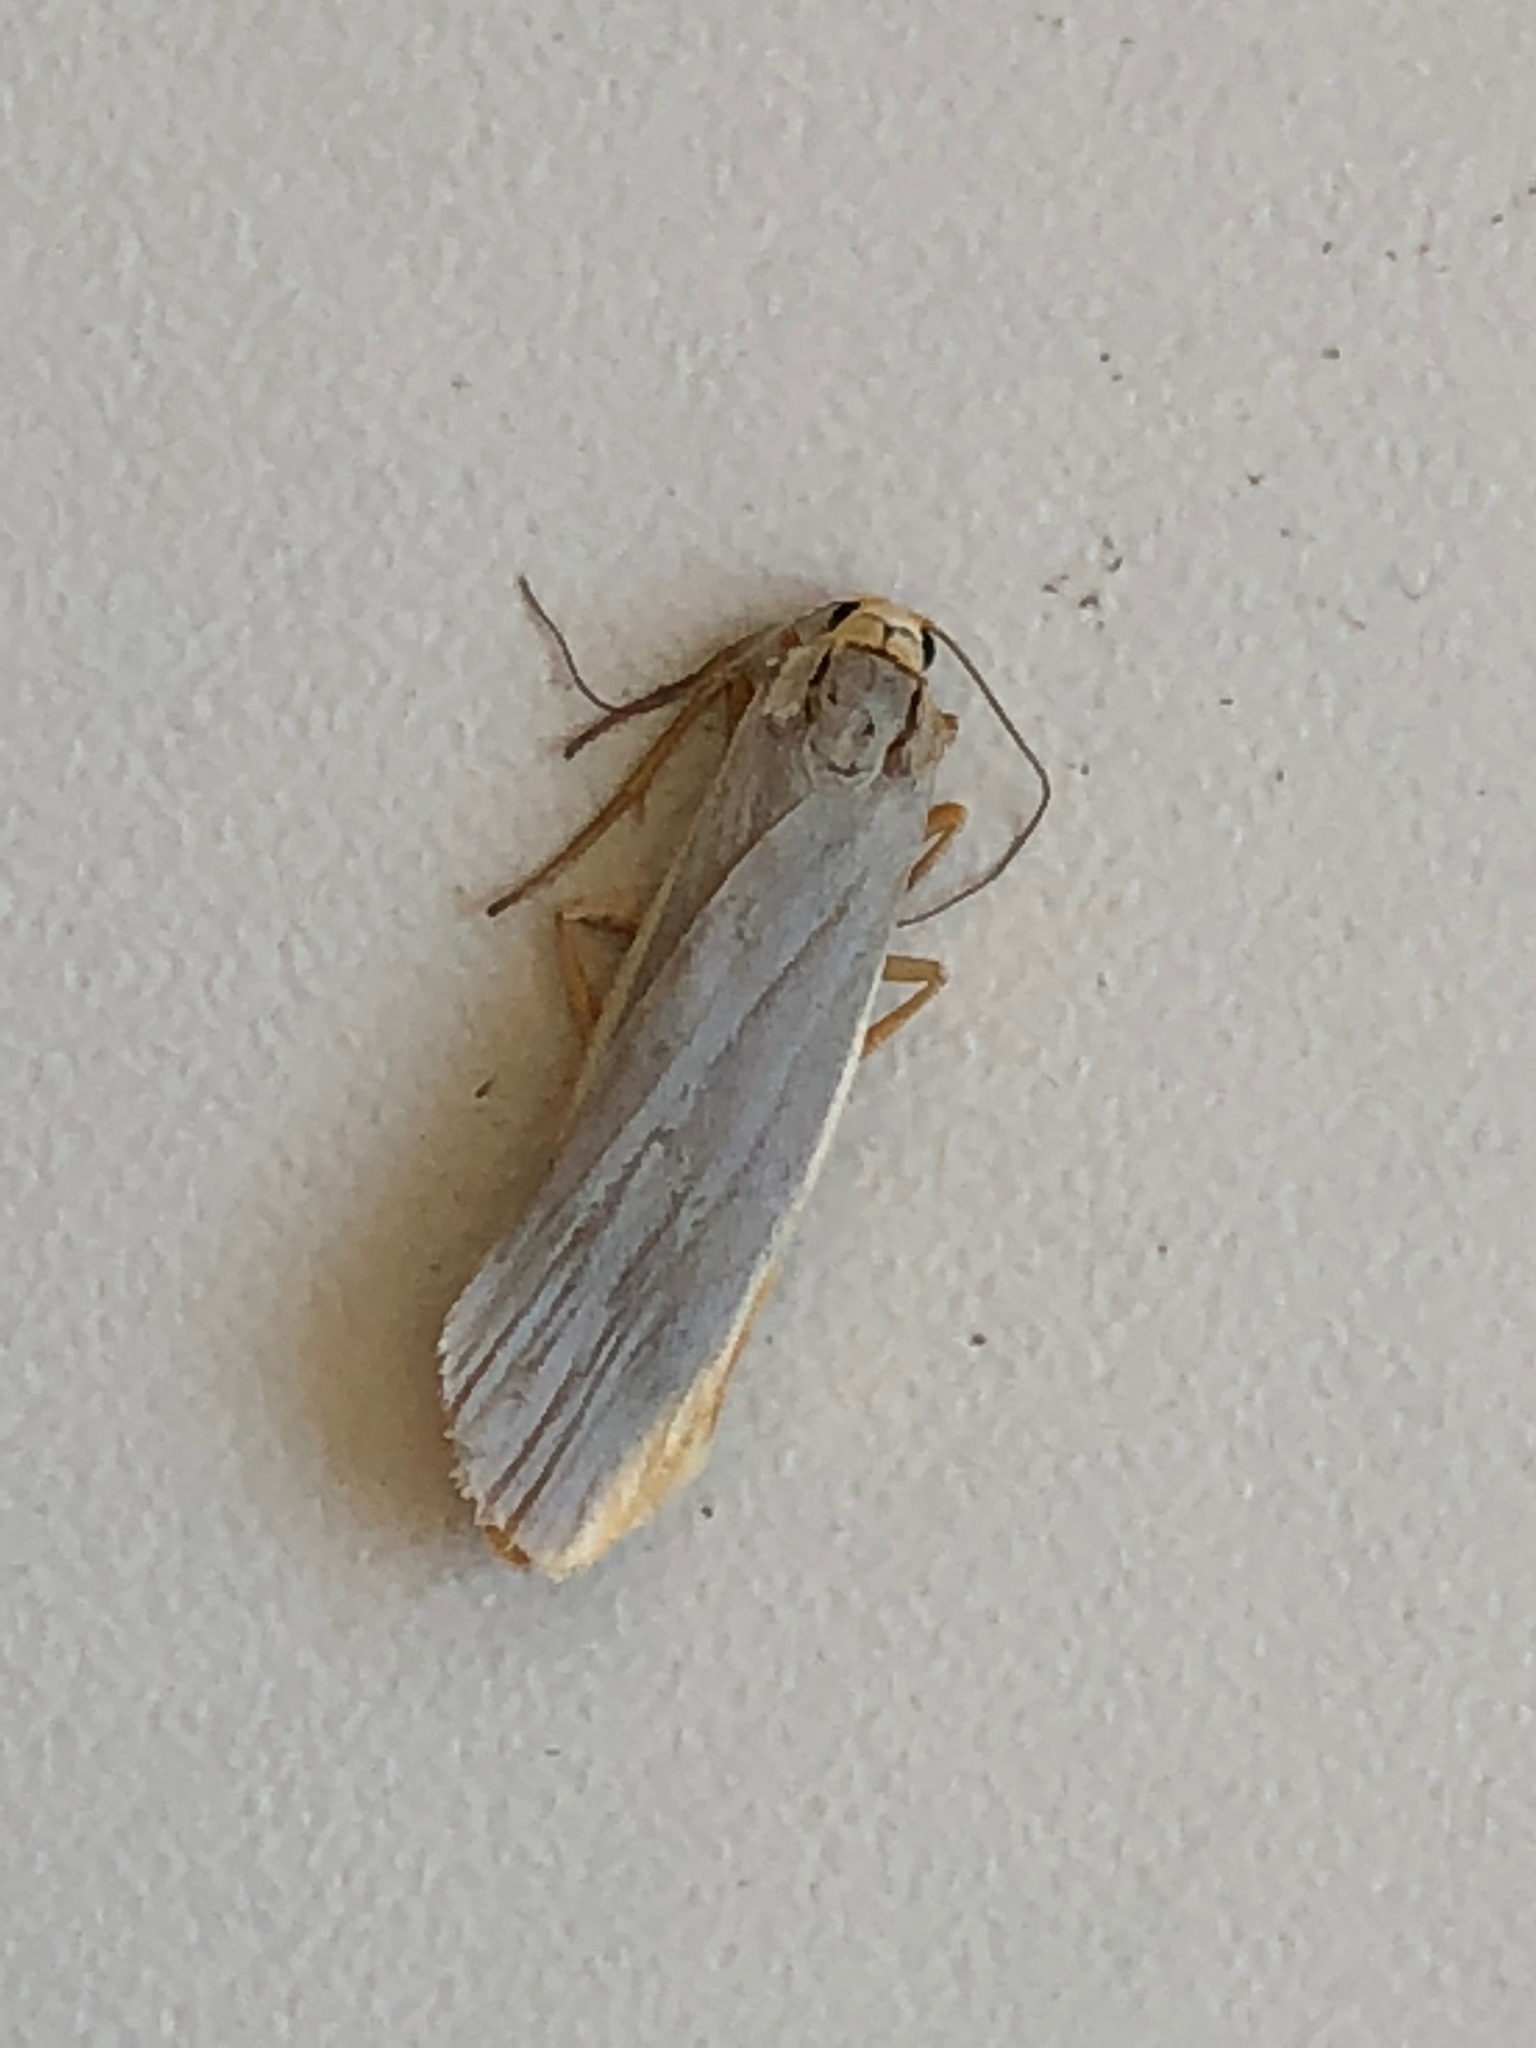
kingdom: Animalia
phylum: Arthropoda
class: Insecta
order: Lepidoptera
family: Erebidae
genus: Nyea
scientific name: Nyea lurideola
